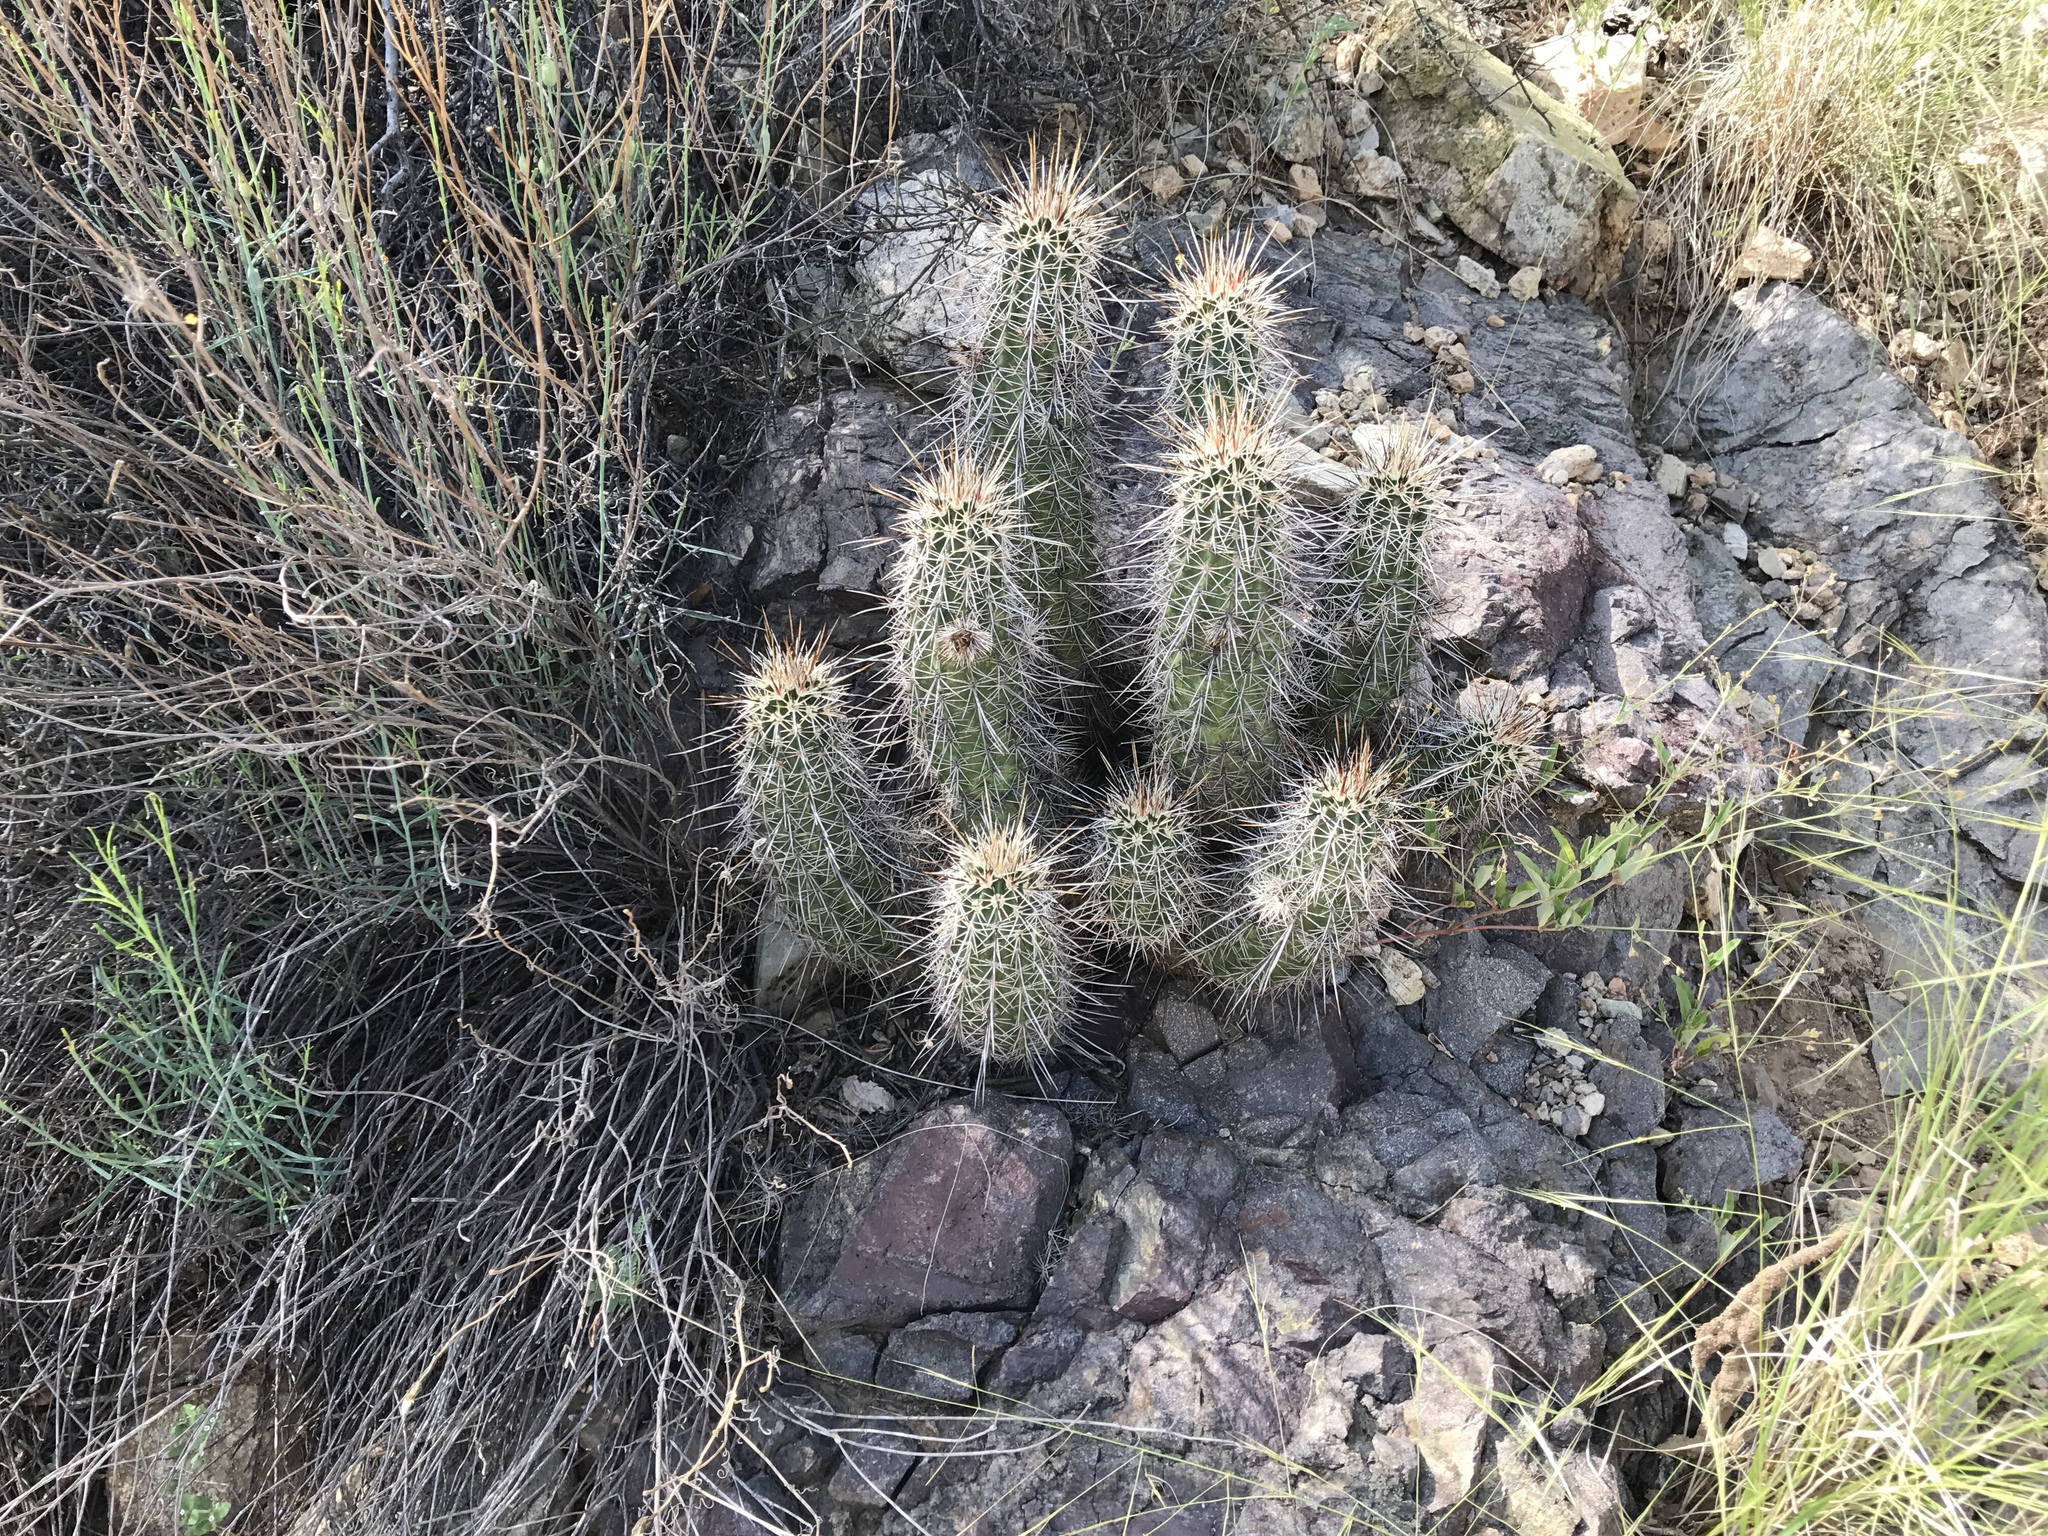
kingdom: Plantae
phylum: Tracheophyta
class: Magnoliopsida
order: Caryophyllales
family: Cactaceae
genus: Echinocereus
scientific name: Echinocereus fasciculatus
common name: Bundle hedgehog
